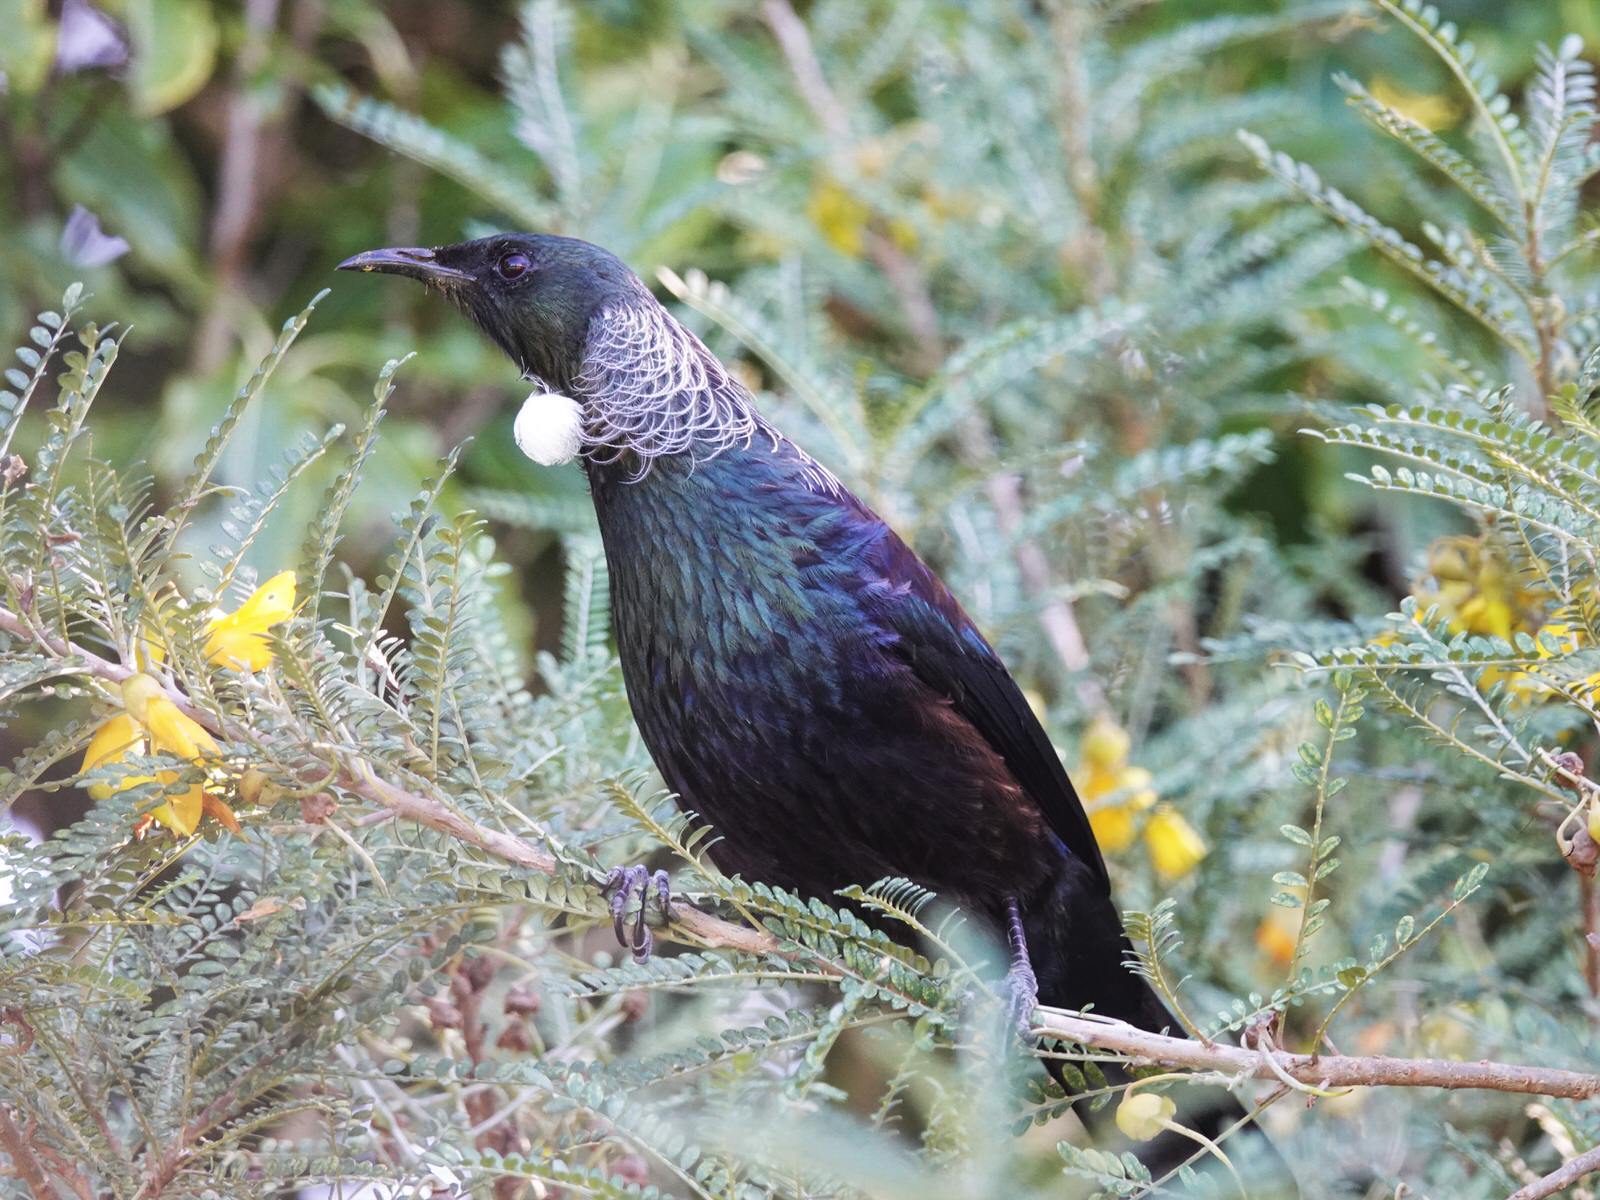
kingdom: Animalia
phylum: Chordata
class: Aves
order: Passeriformes
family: Meliphagidae
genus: Prosthemadera
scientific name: Prosthemadera novaeseelandiae
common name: Tui
